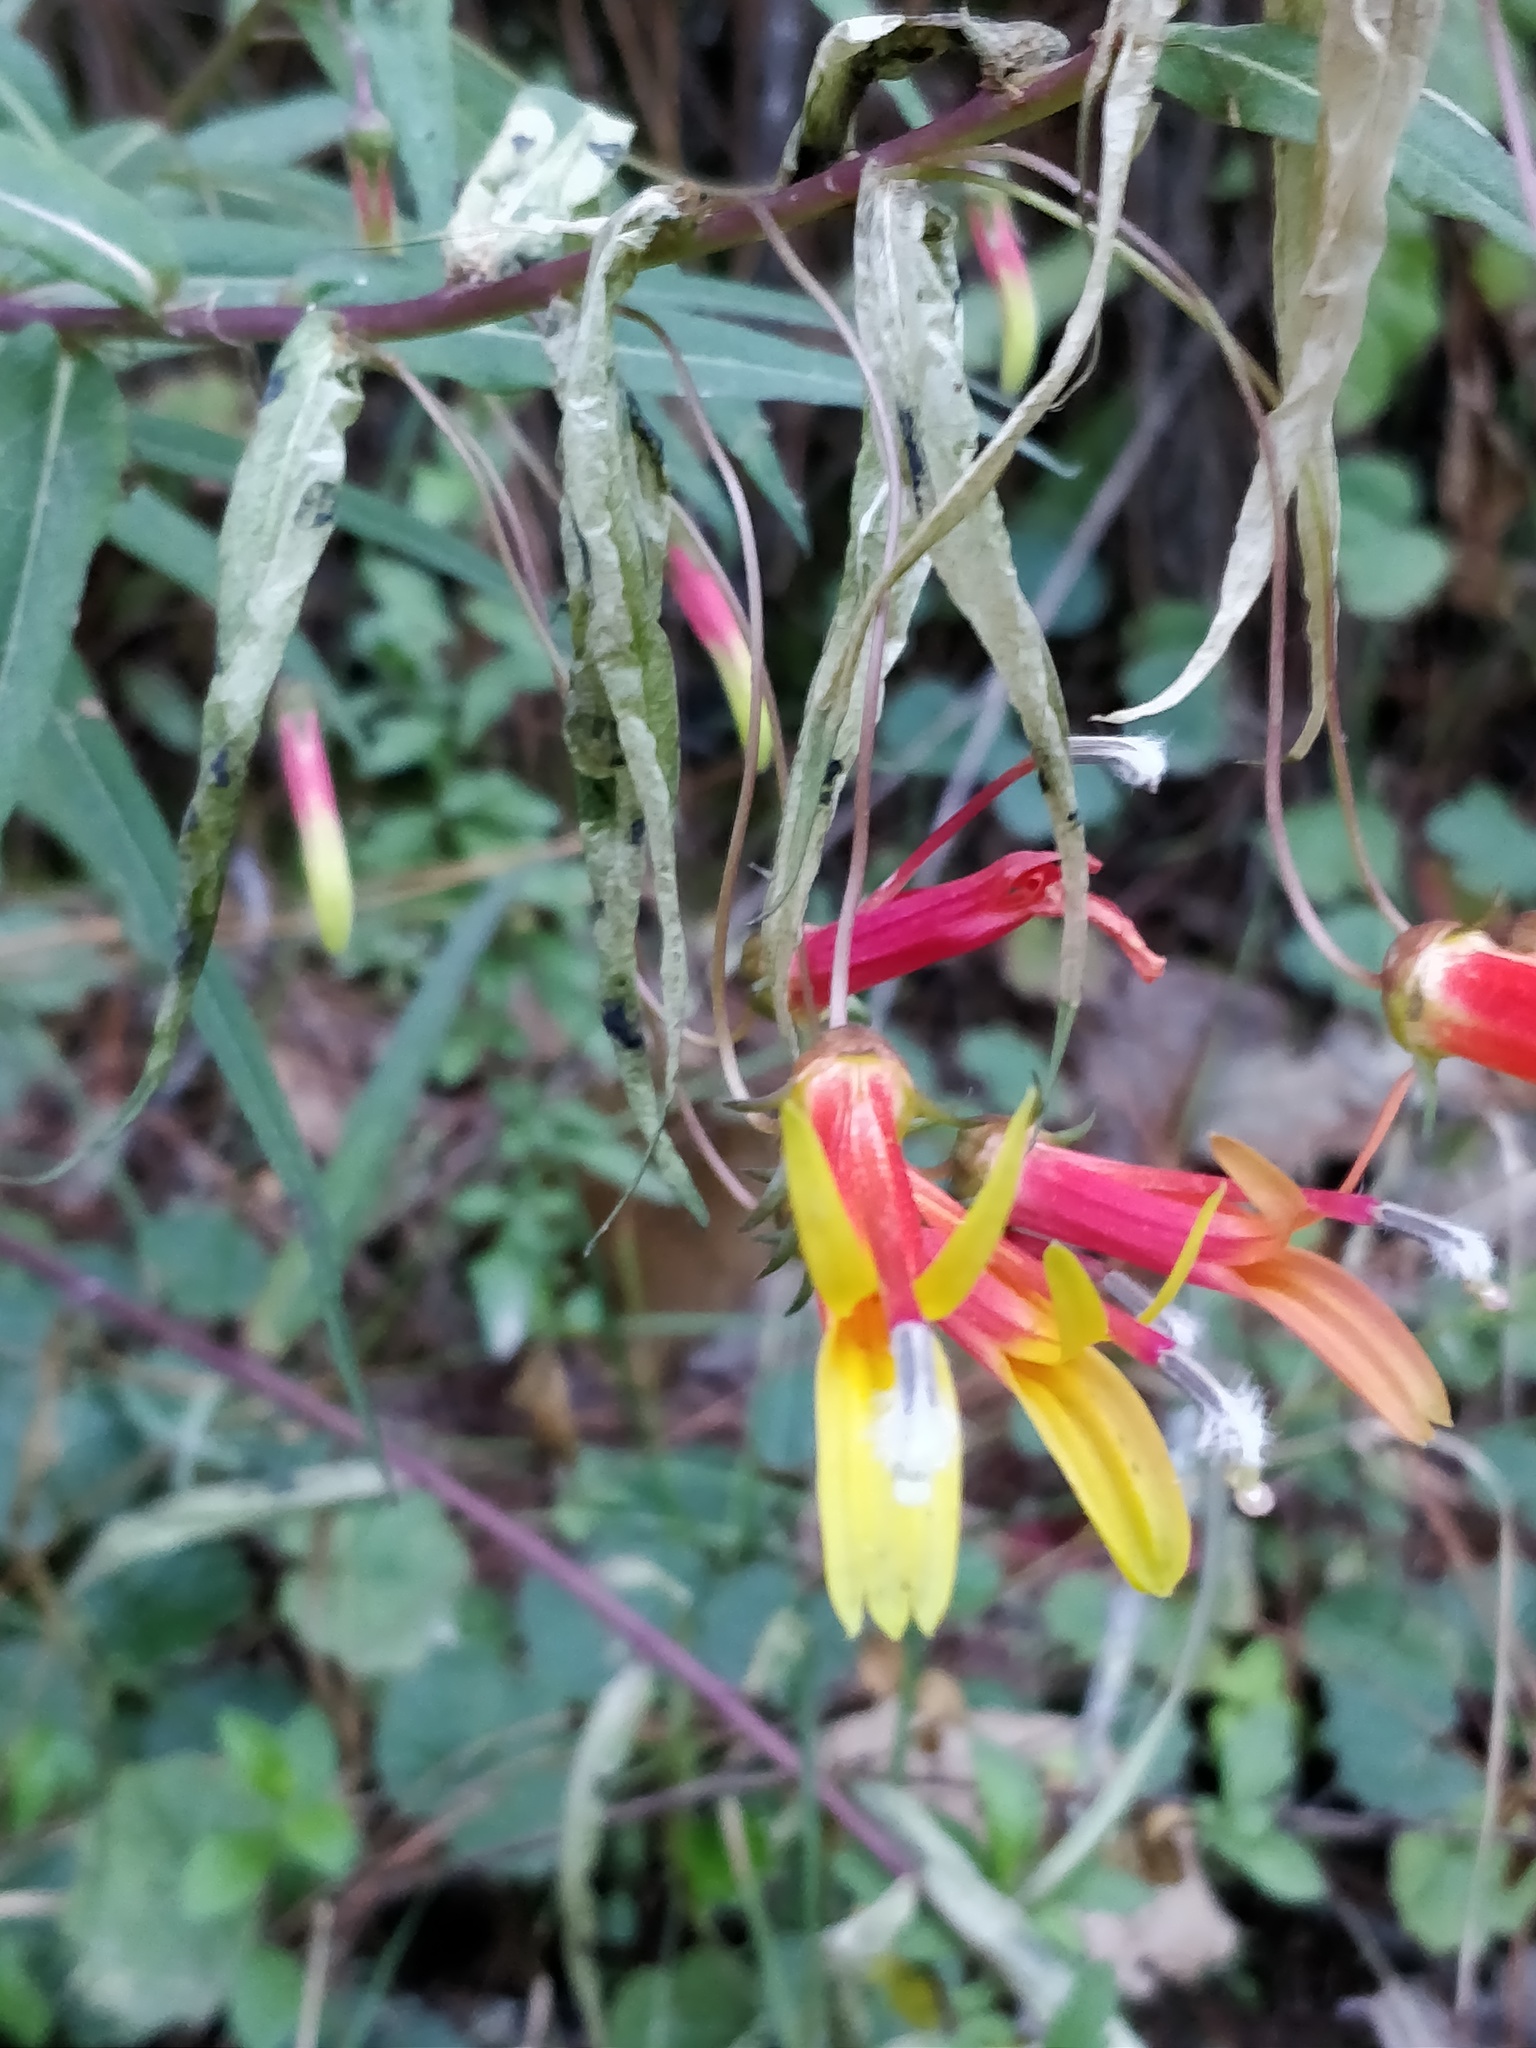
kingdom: Plantae
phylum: Tracheophyta
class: Magnoliopsida
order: Asterales
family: Campanulaceae
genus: Lobelia
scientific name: Lobelia laxiflora
